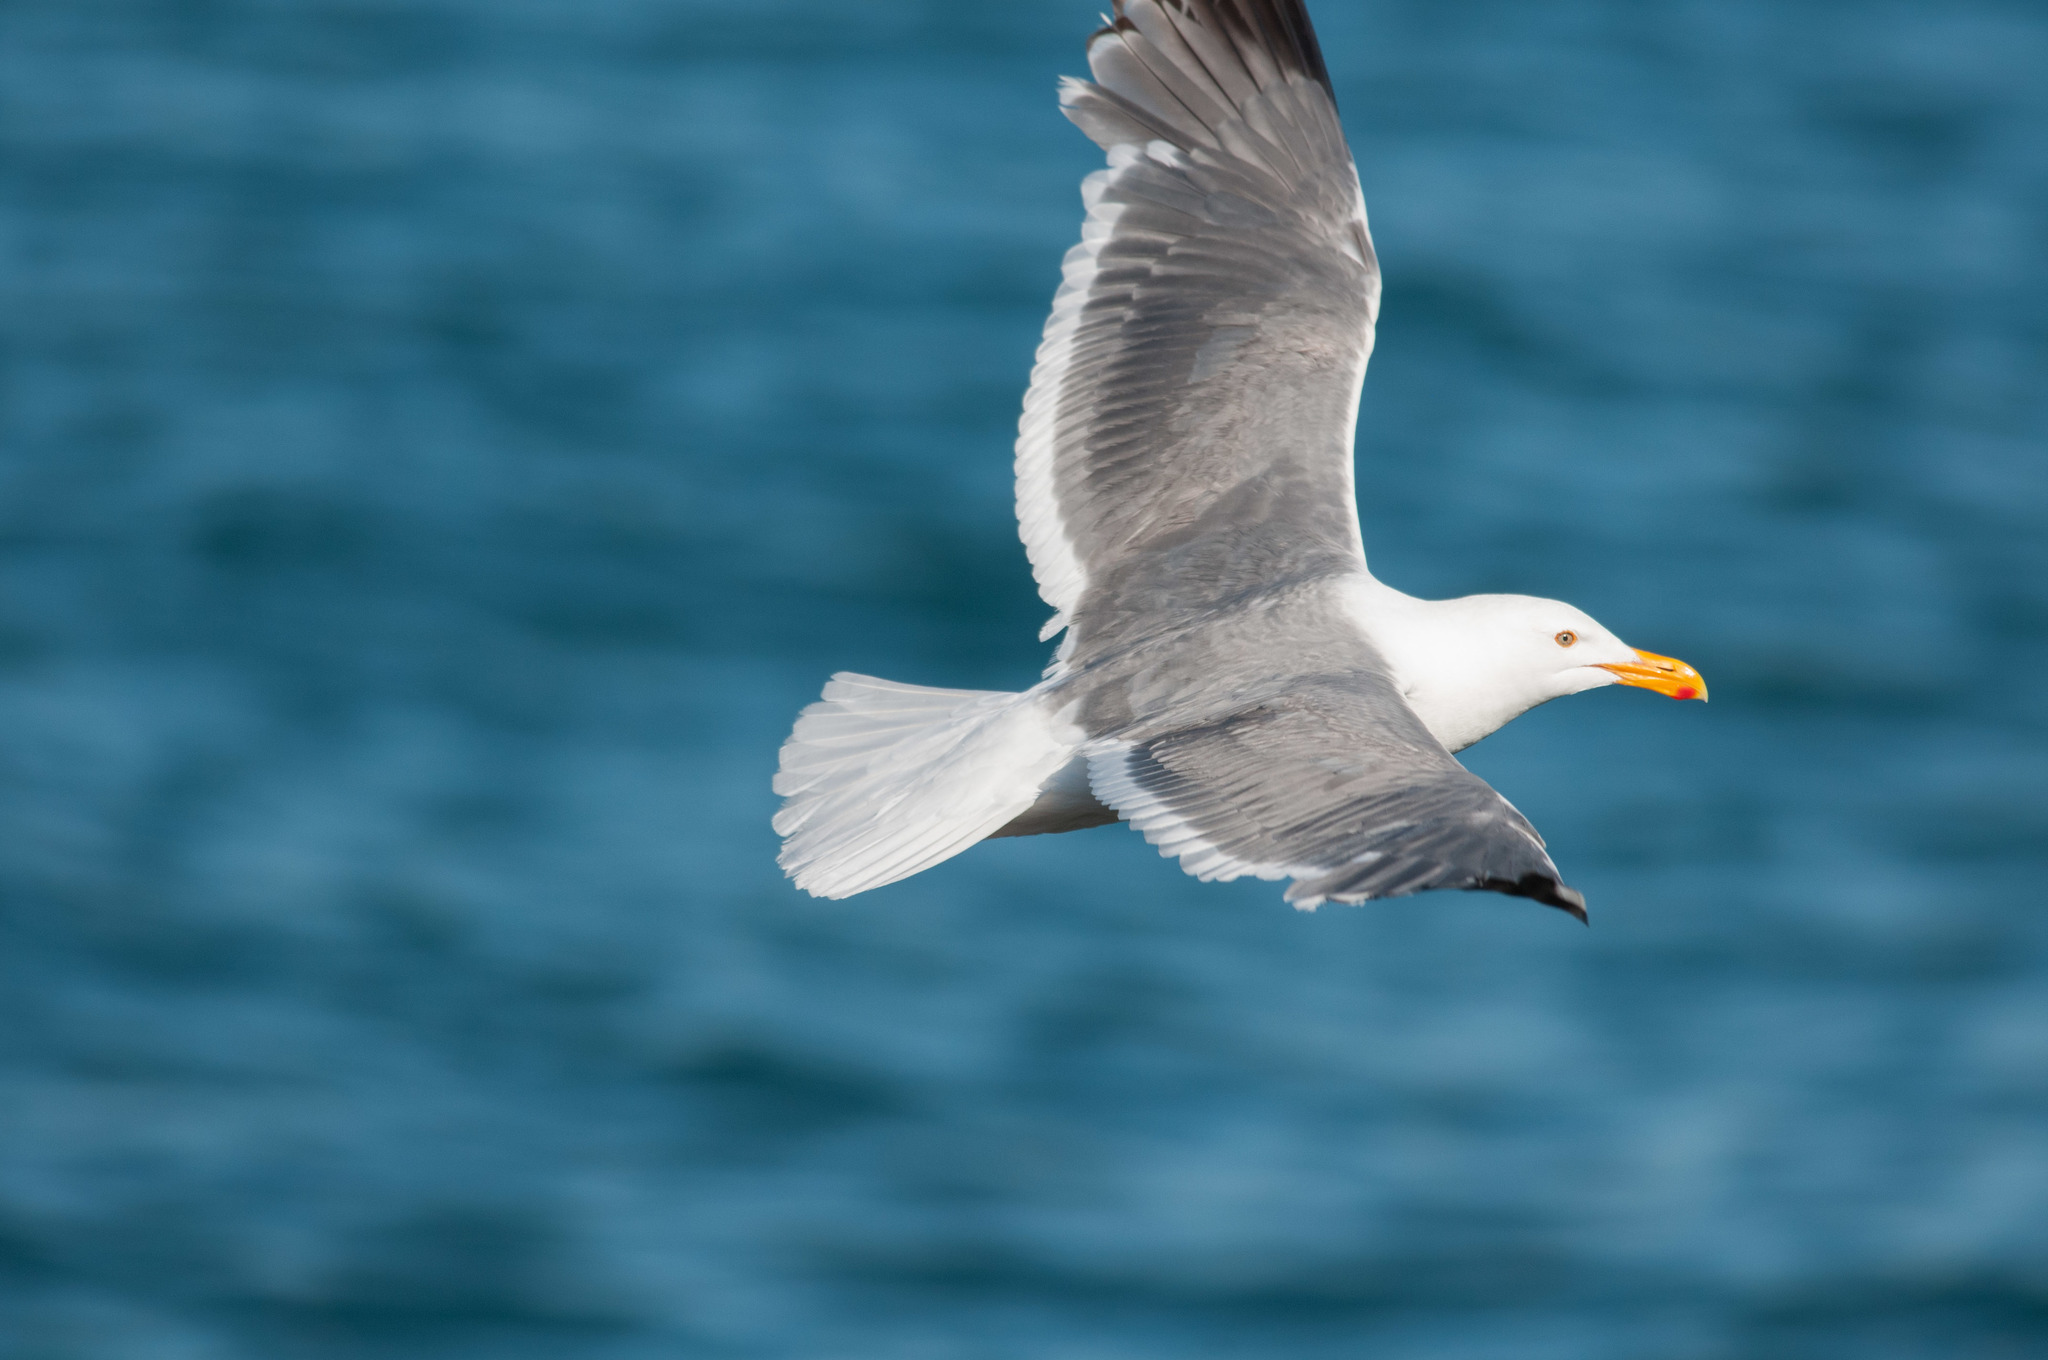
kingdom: Animalia
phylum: Chordata
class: Aves
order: Charadriiformes
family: Laridae
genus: Larus
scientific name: Larus occidentalis
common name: Western gull
